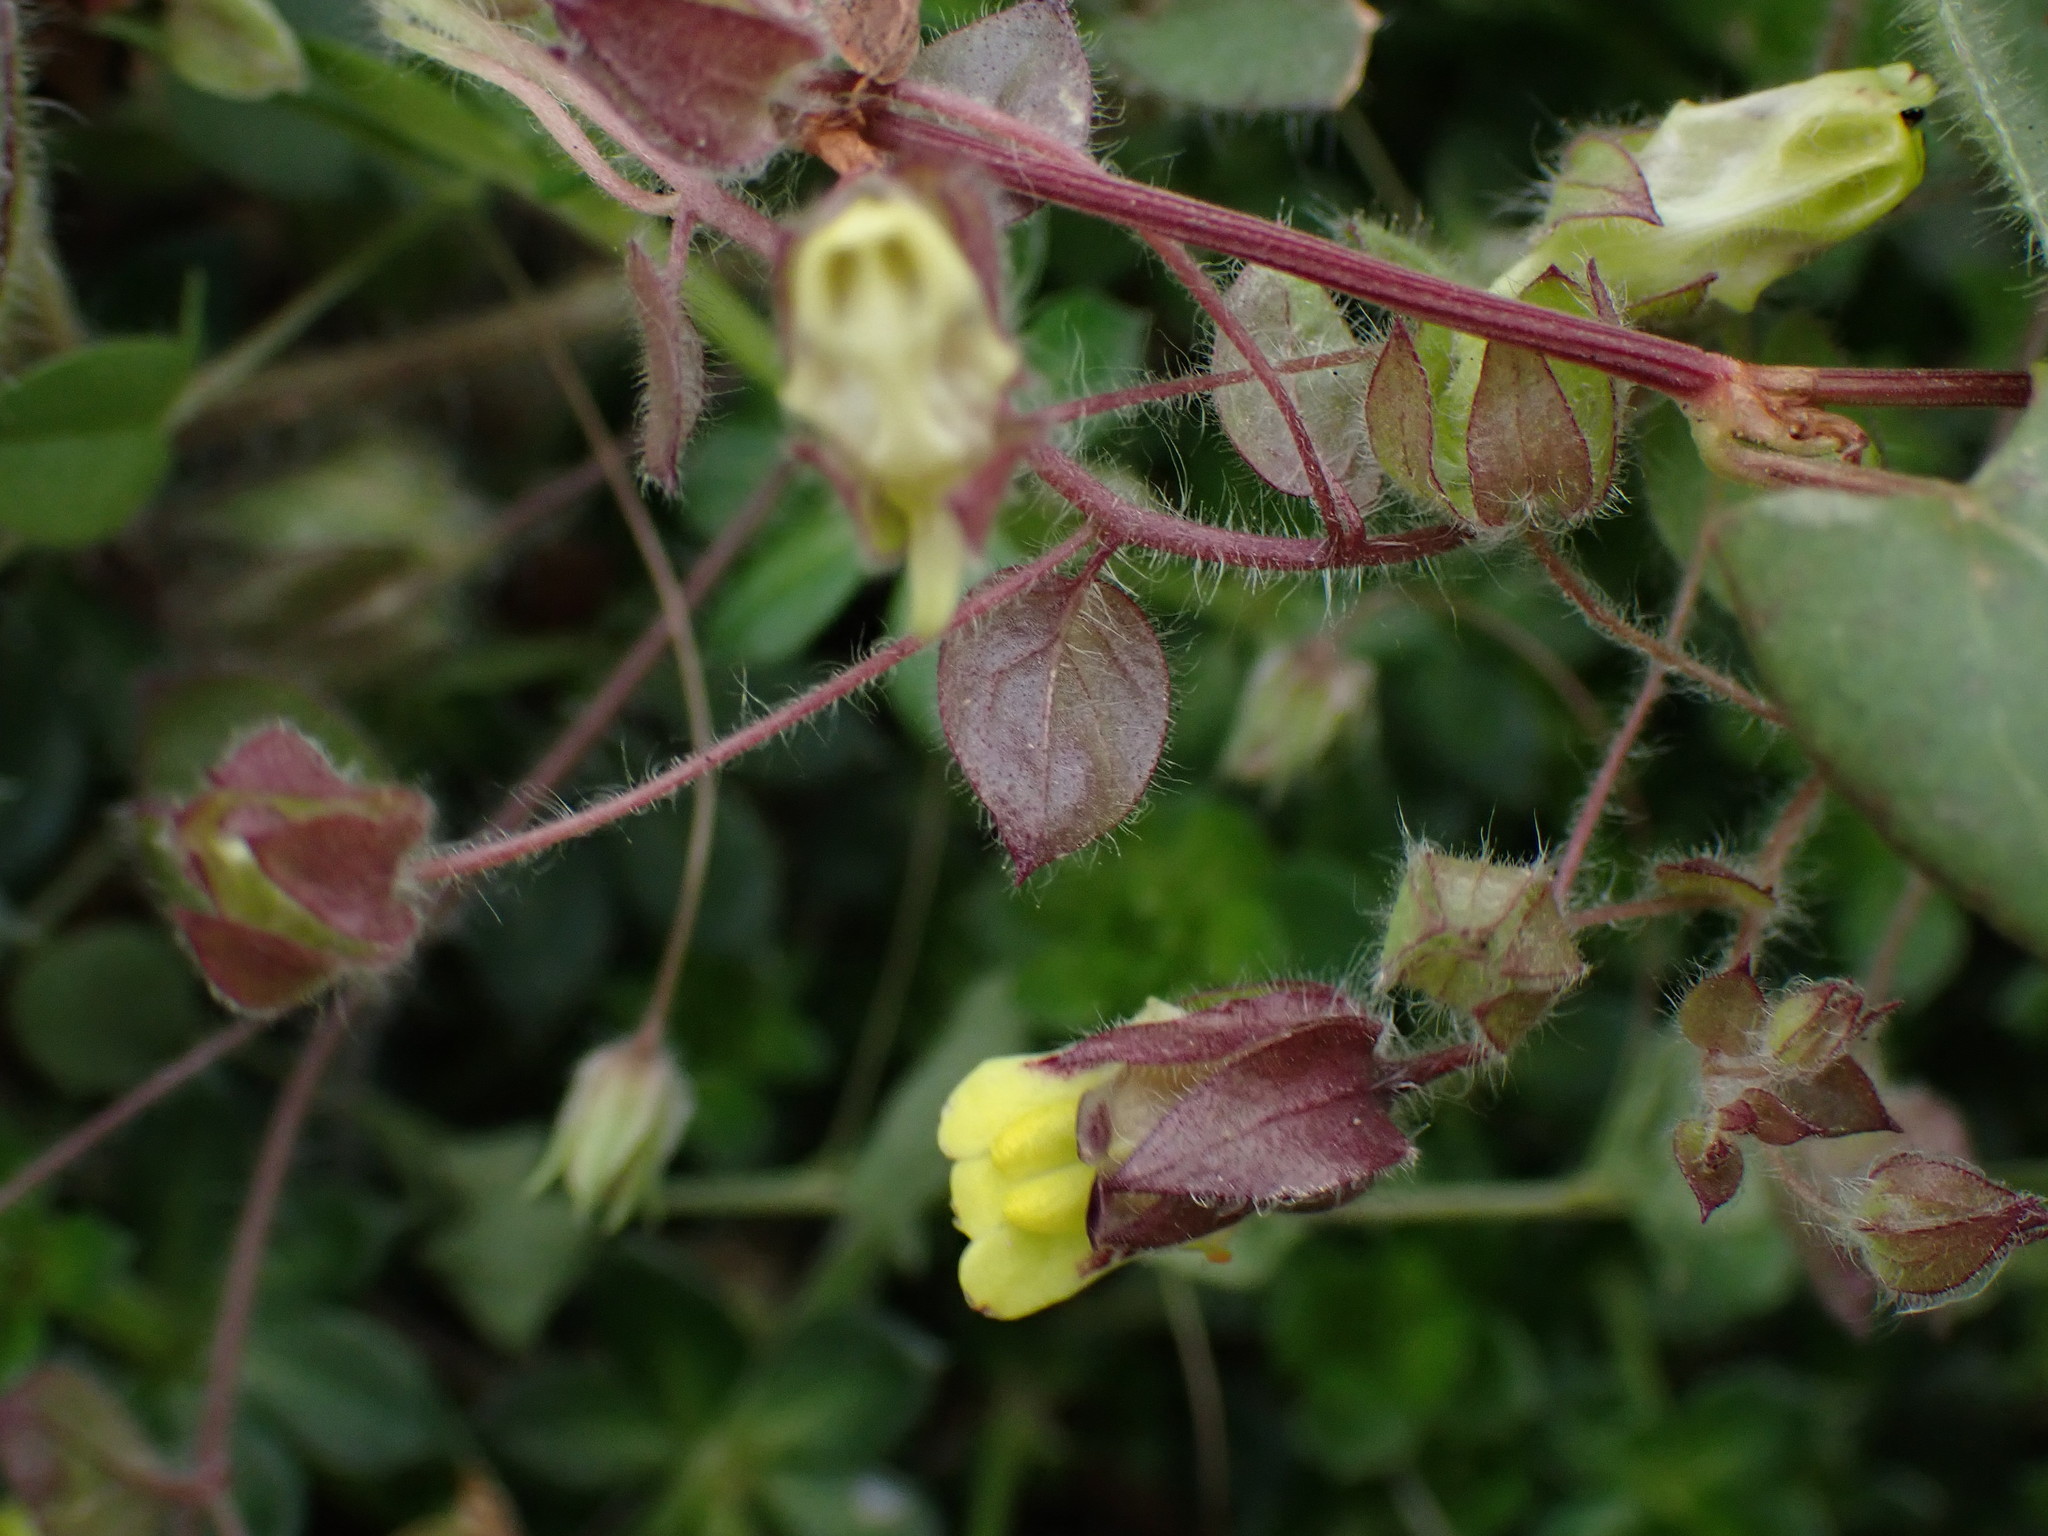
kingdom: Plantae
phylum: Tracheophyta
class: Magnoliopsida
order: Lamiales
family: Plantaginaceae
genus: Kickxia
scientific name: Kickxia spuria
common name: Round-leaved fluellen
